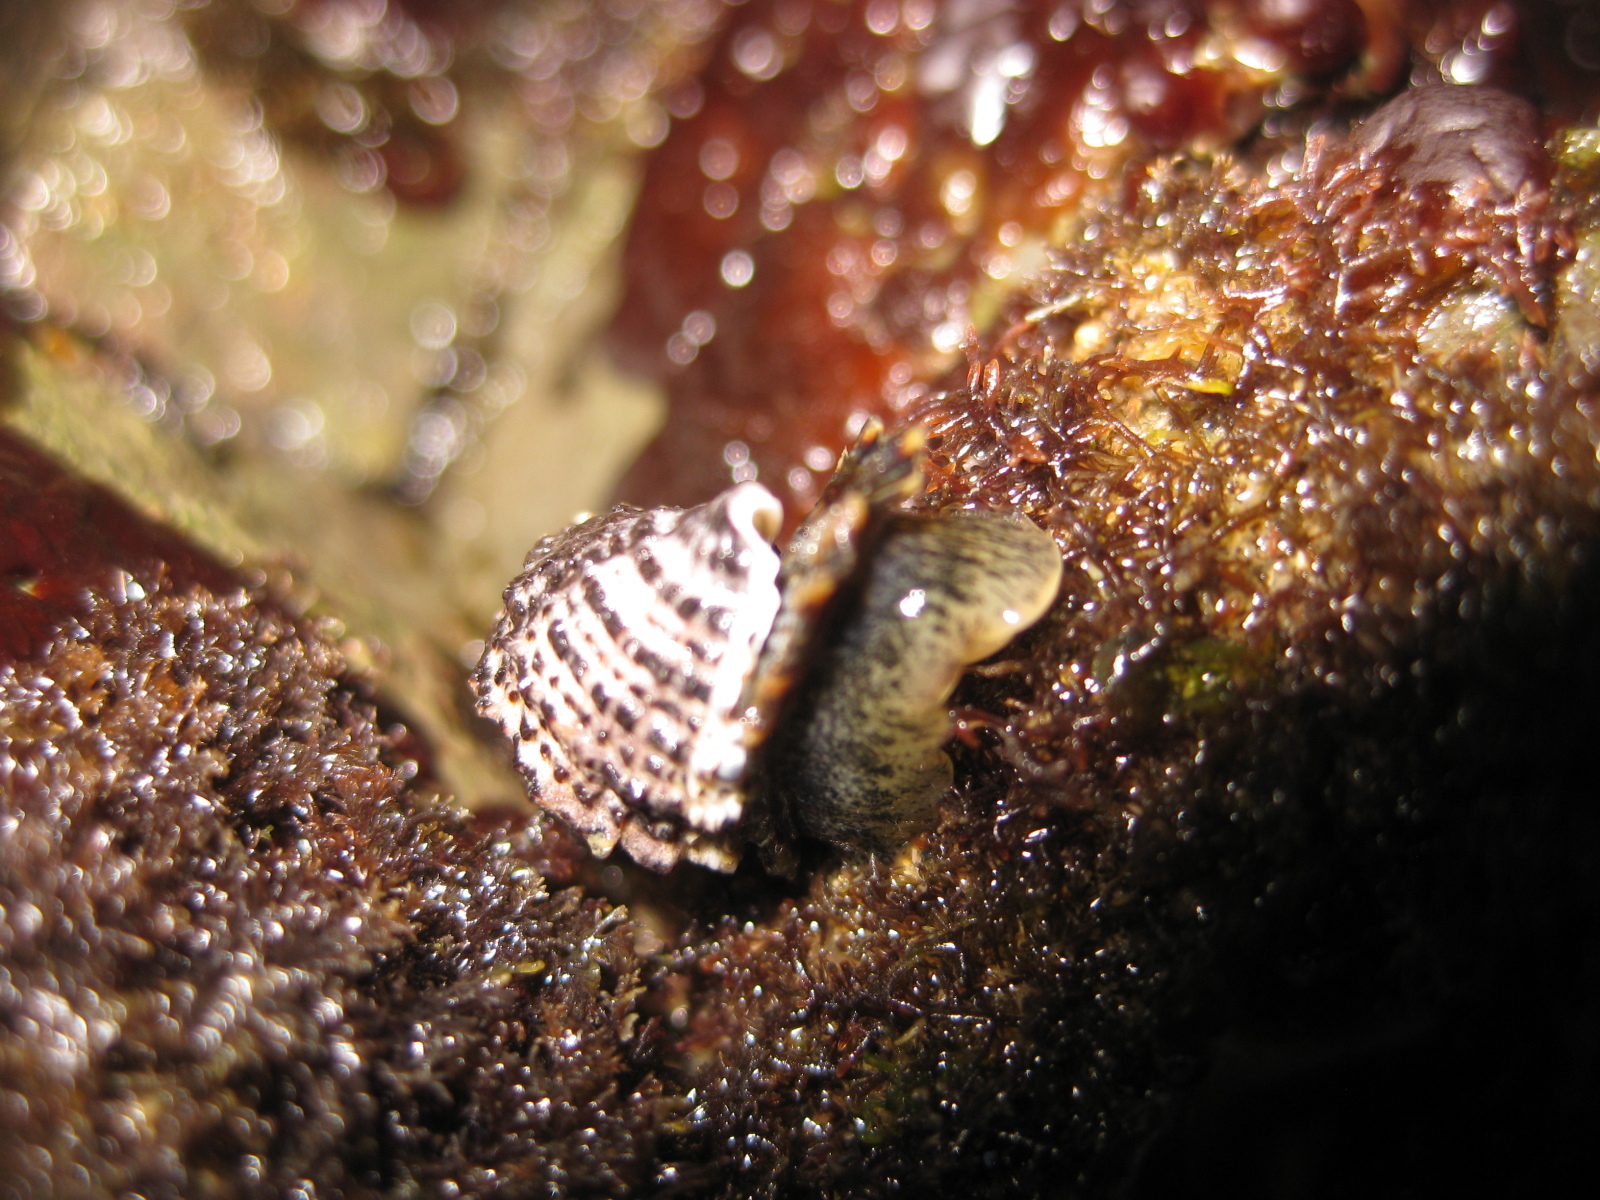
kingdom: Animalia
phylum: Mollusca
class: Gastropoda
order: Neogastropoda
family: Muricidae
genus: Haustrum
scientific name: Haustrum scobina
